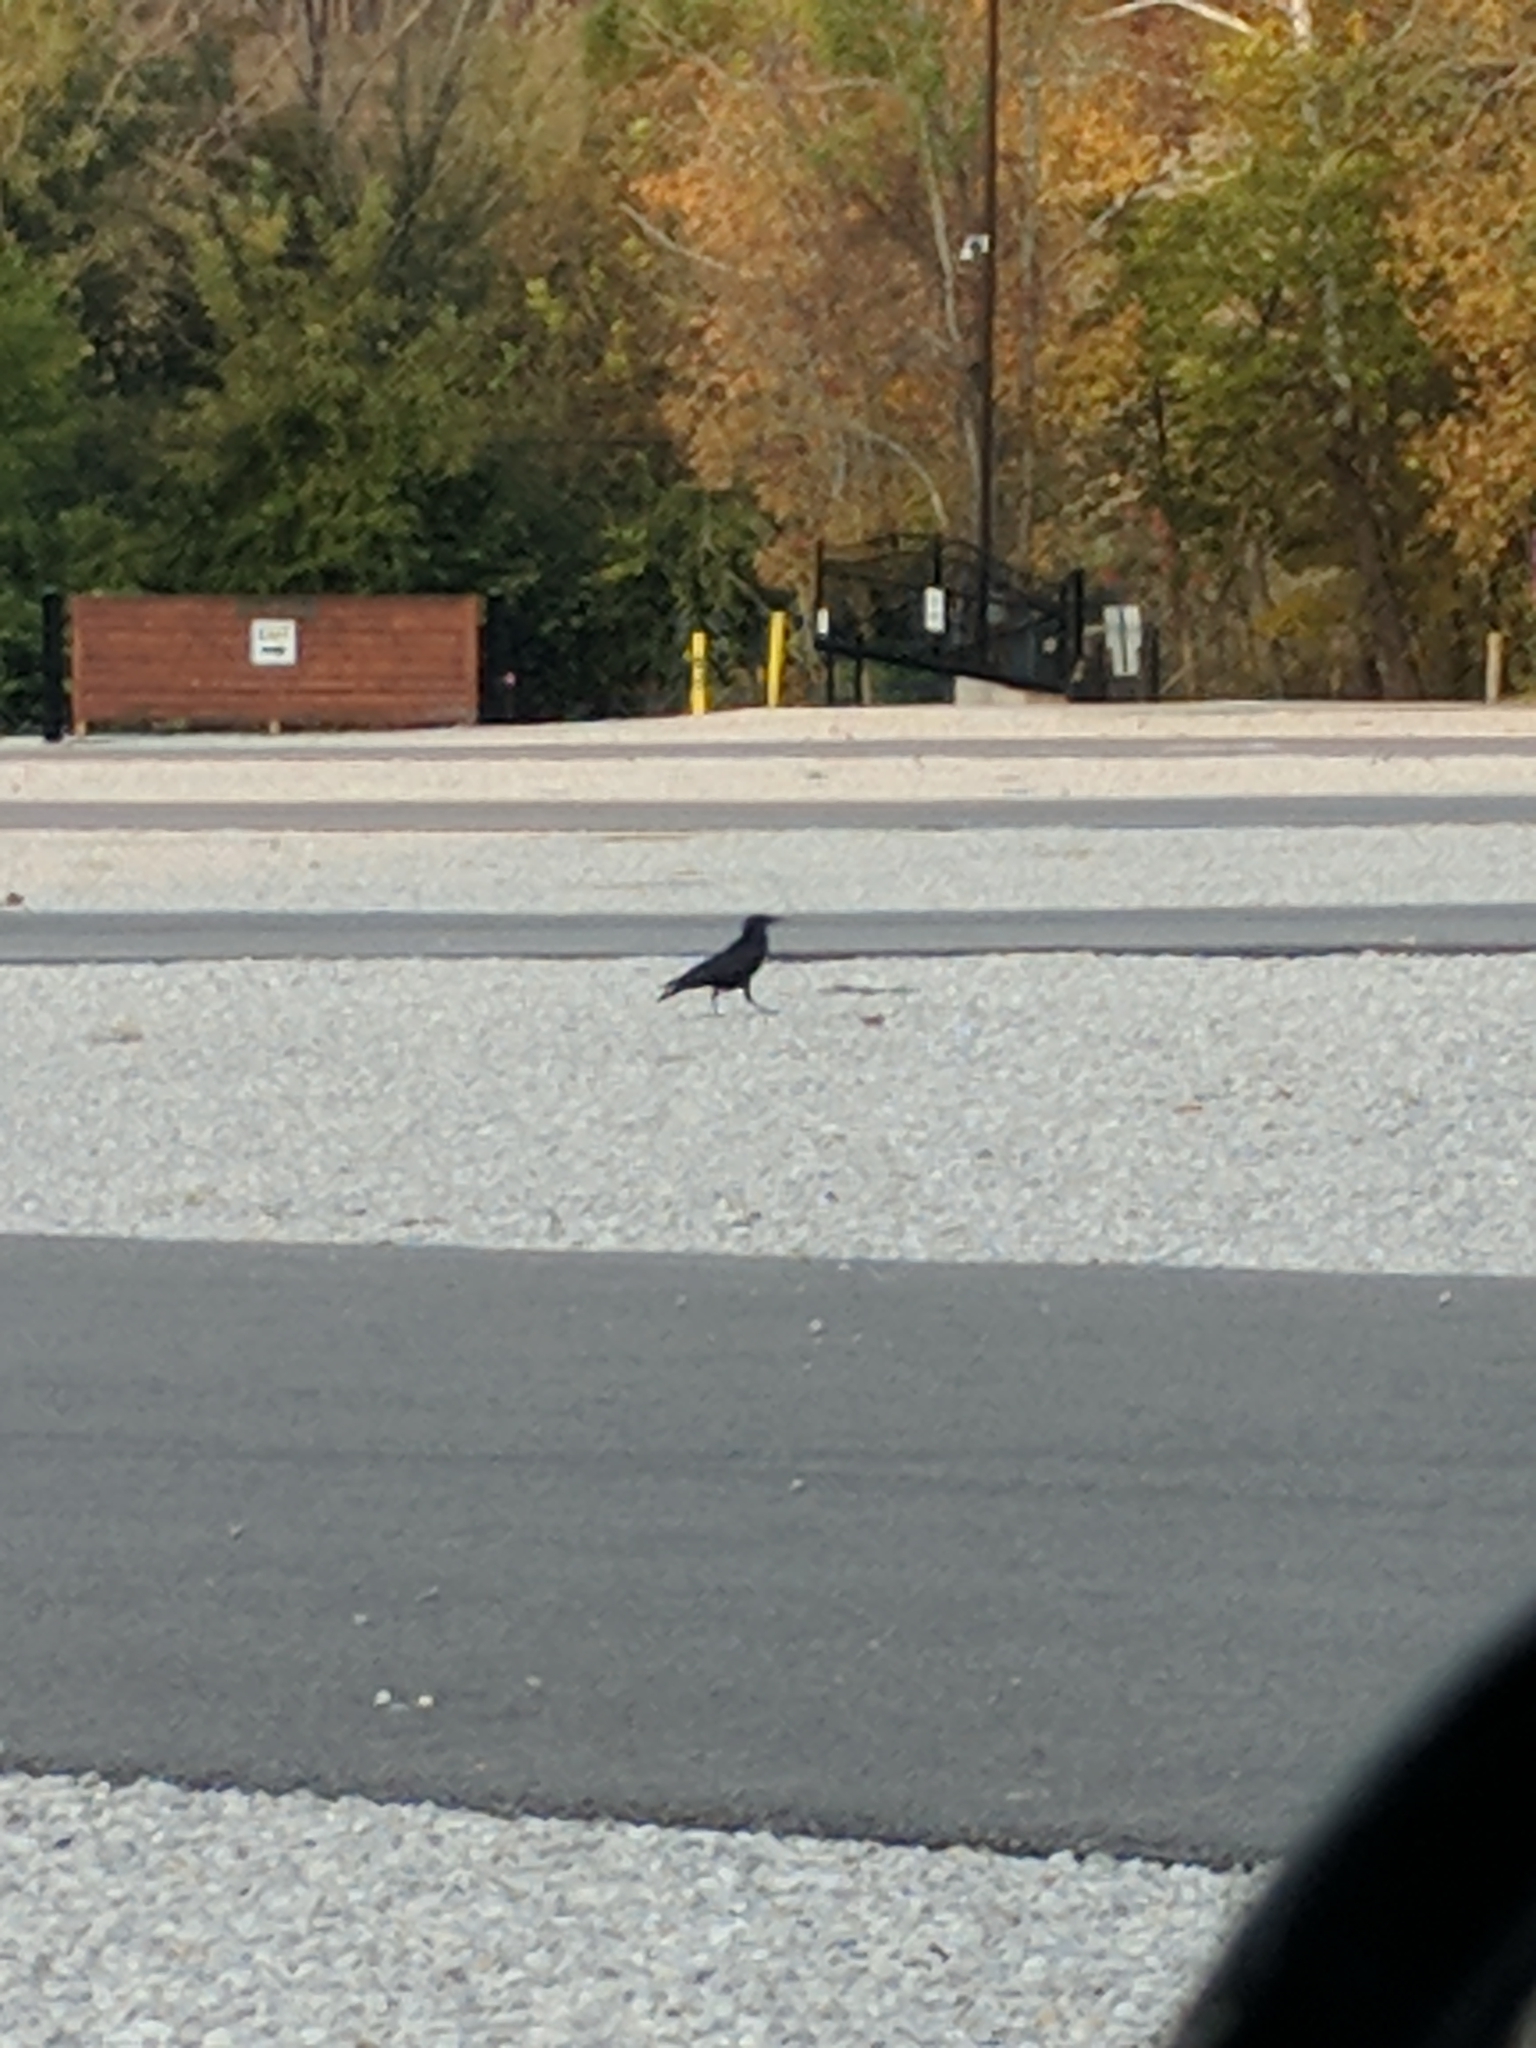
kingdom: Animalia
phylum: Chordata
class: Aves
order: Passeriformes
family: Corvidae
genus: Corvus
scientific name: Corvus brachyrhynchos
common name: American crow
